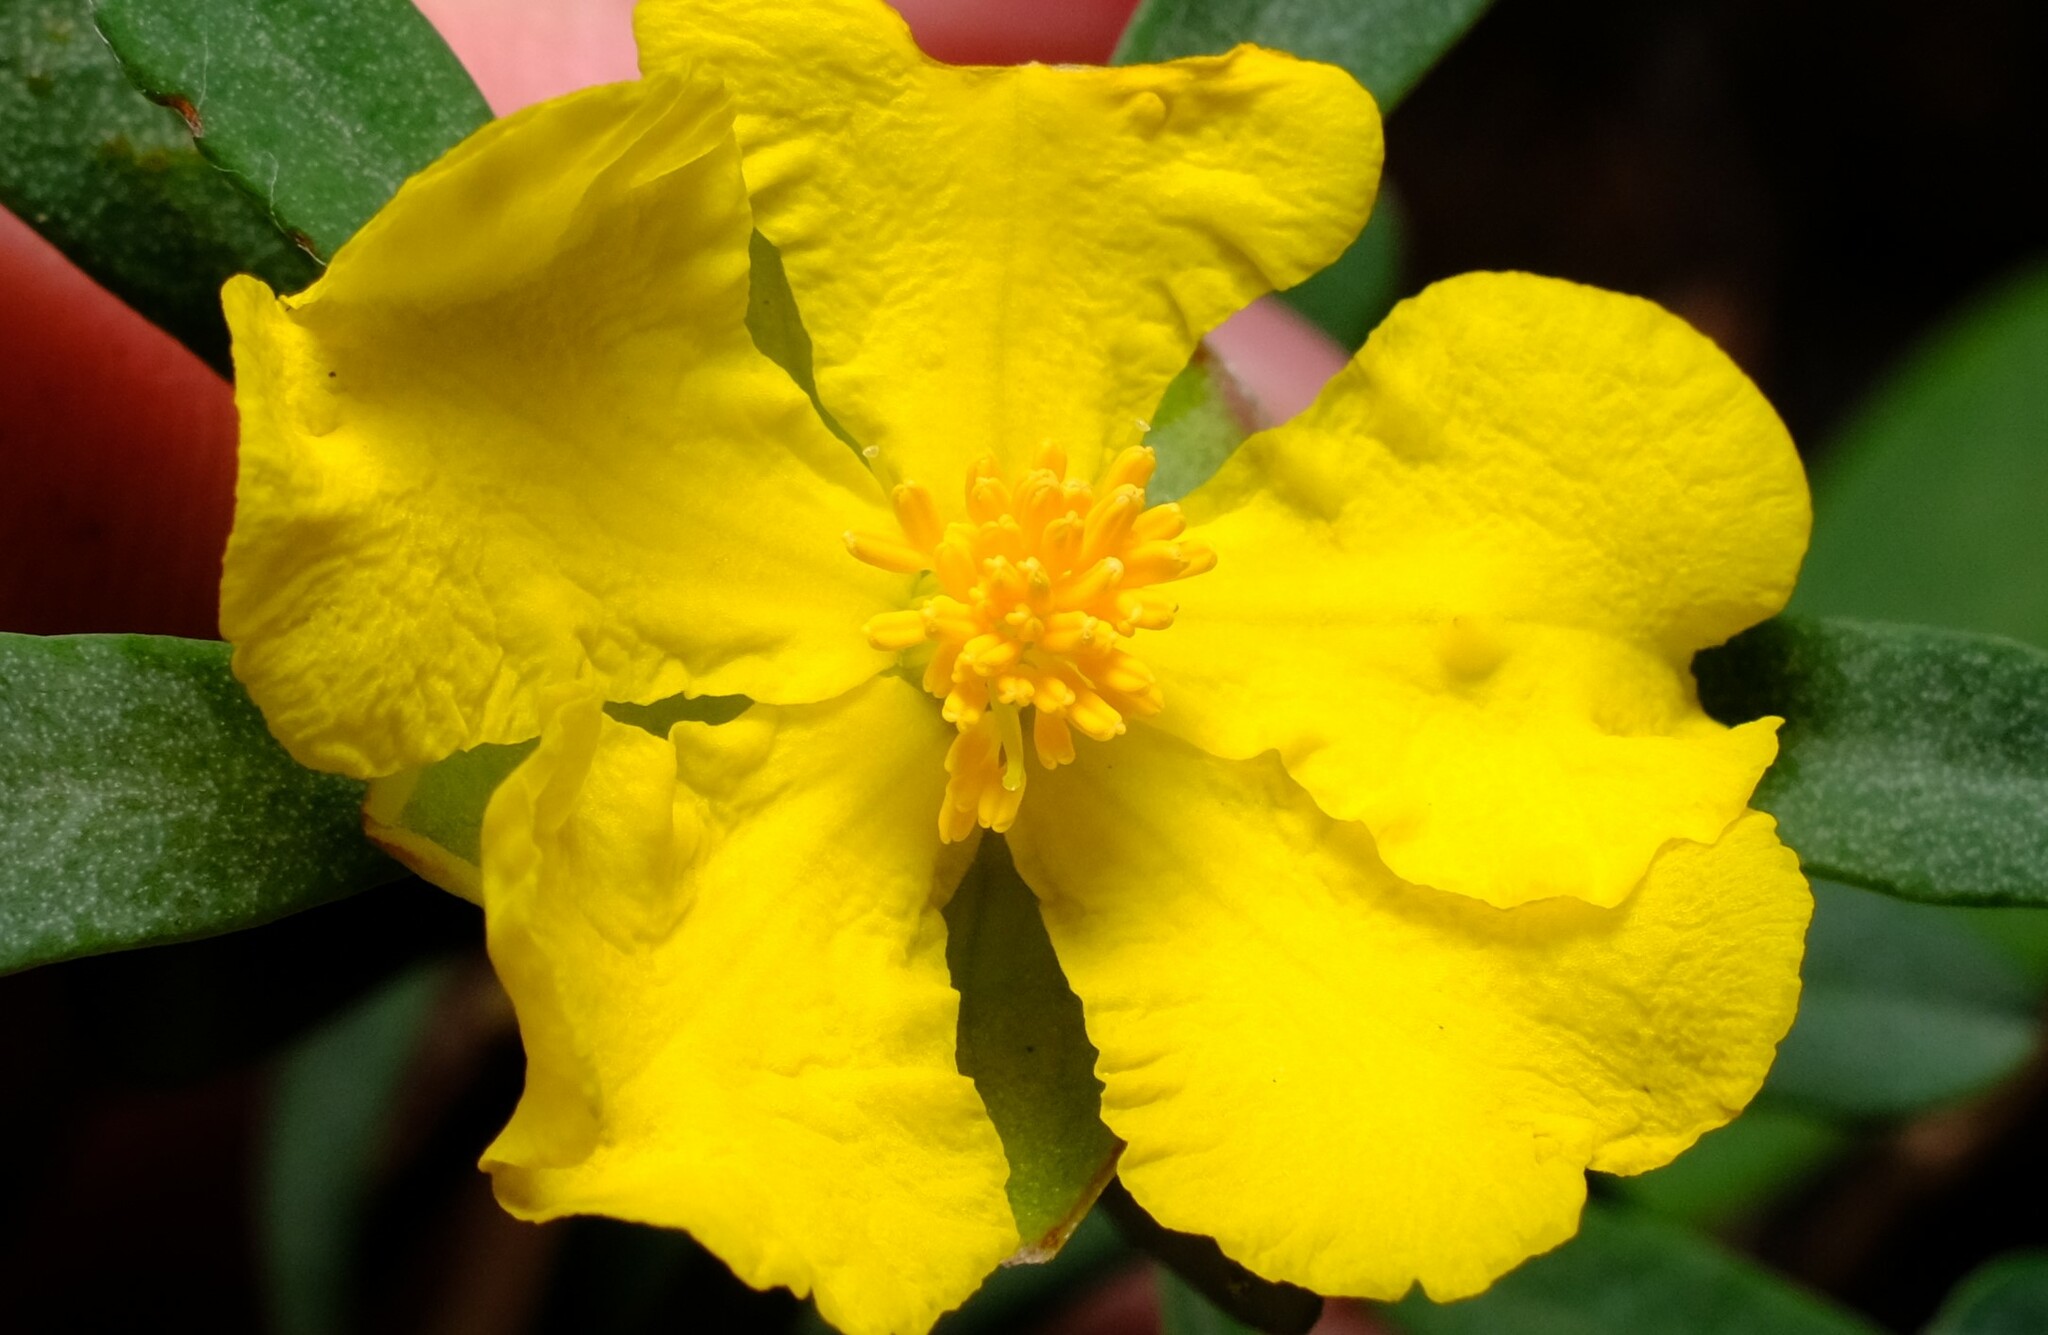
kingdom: Plantae
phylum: Tracheophyta
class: Magnoliopsida
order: Dilleniales
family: Dilleniaceae
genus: Hibbertia
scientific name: Hibbertia obtusifolia
